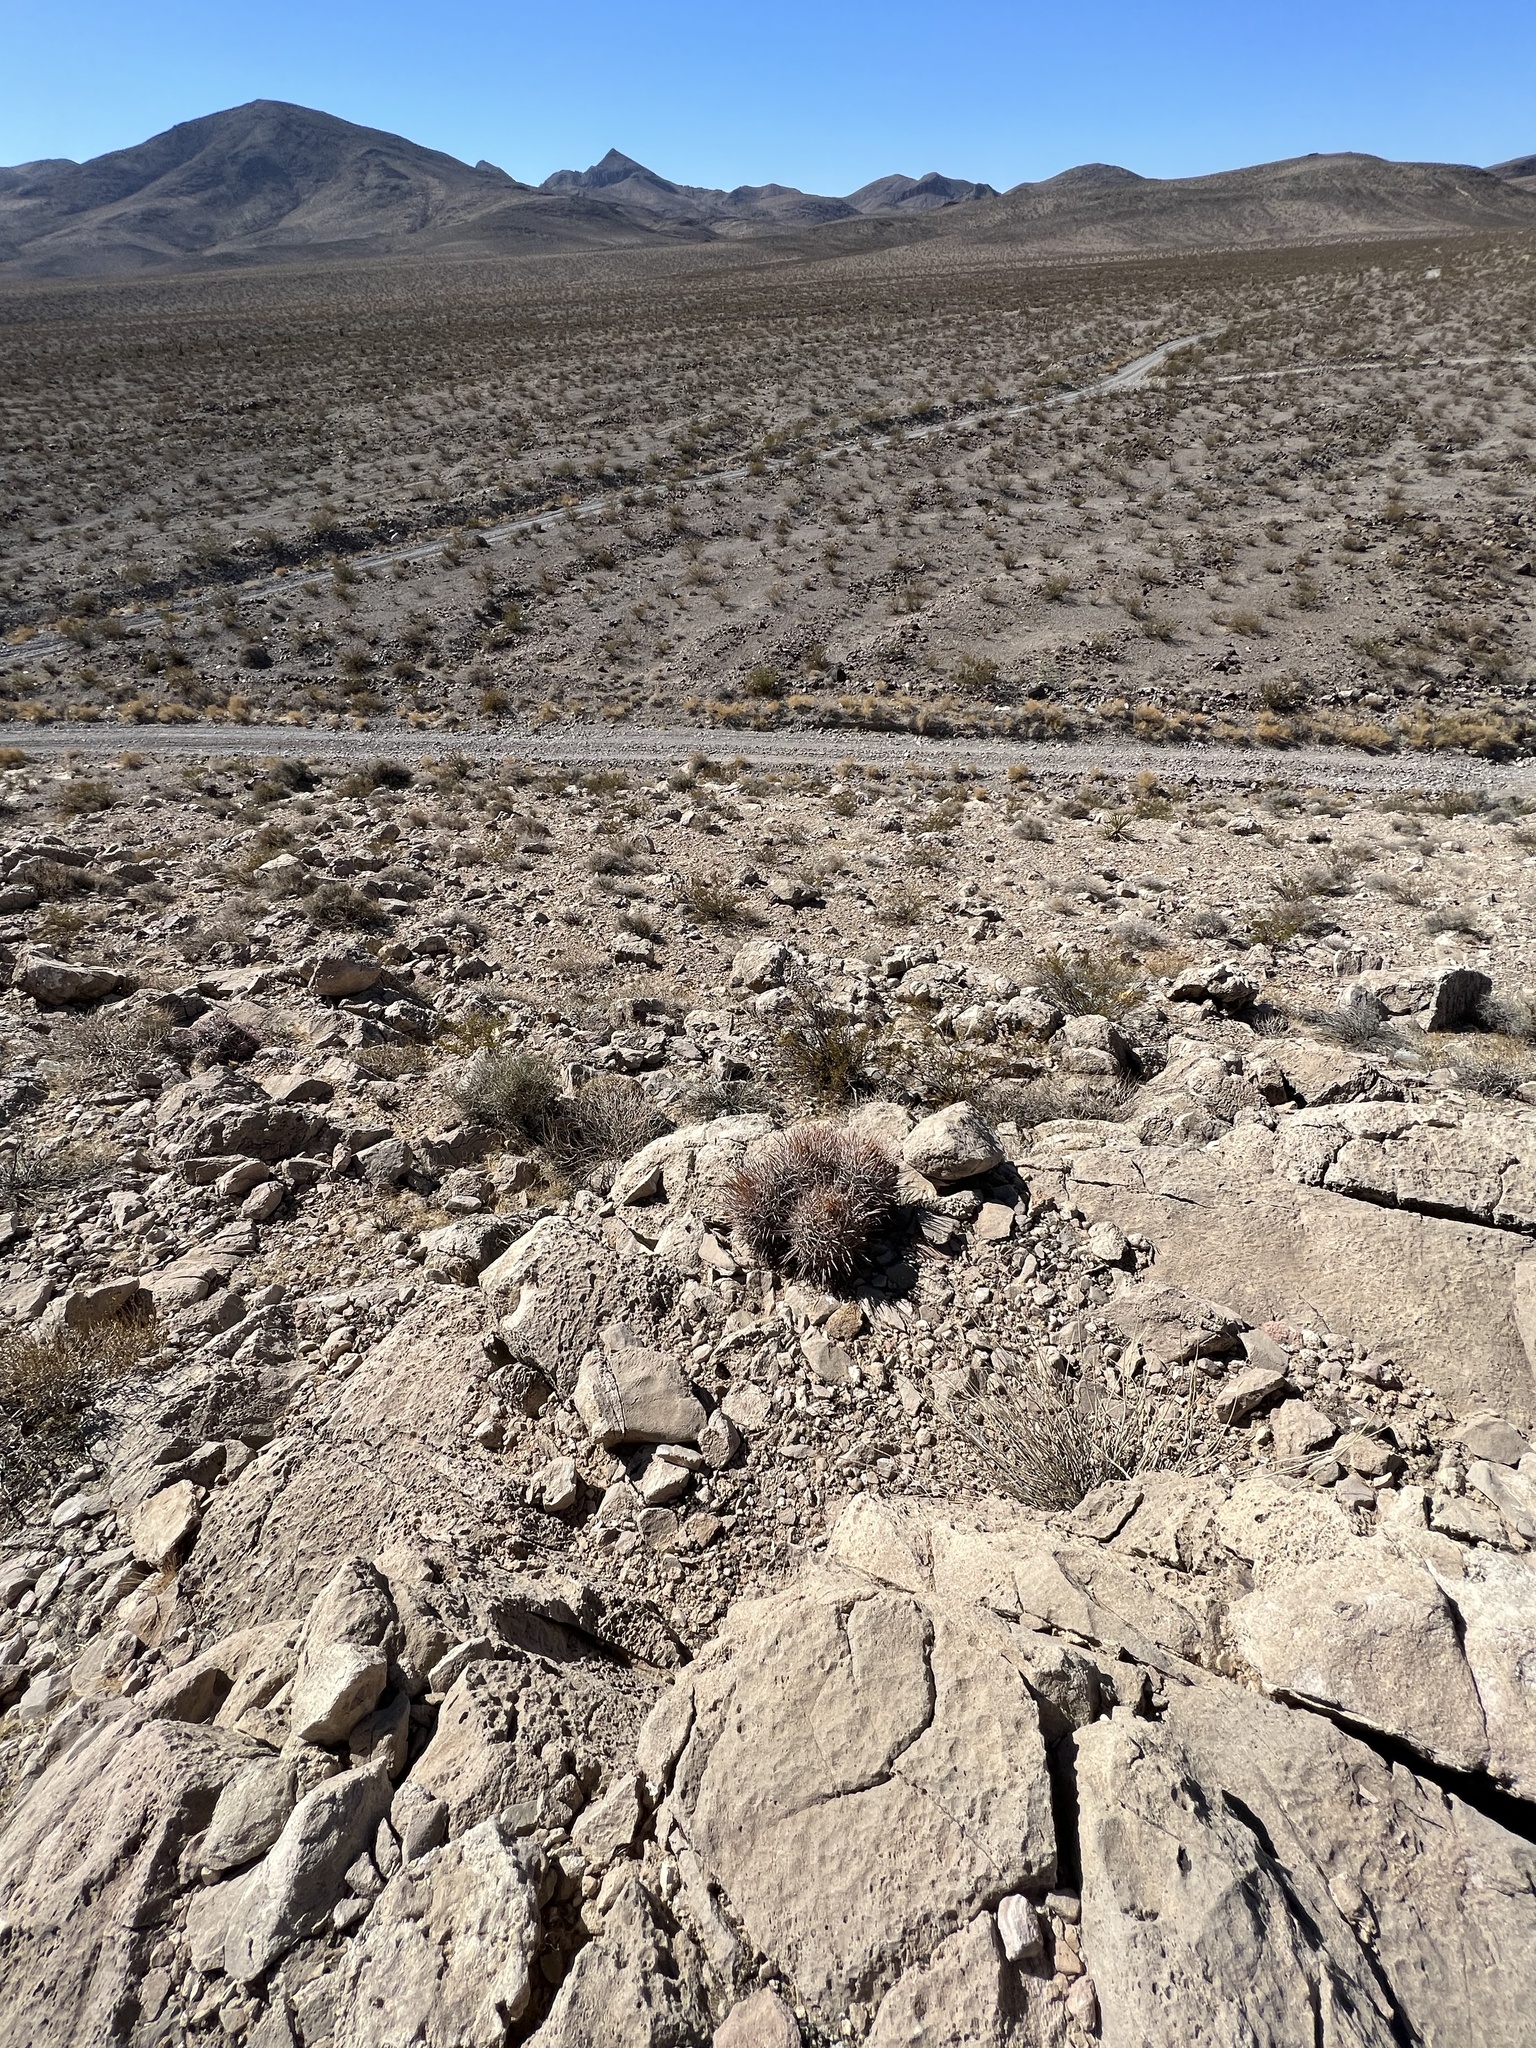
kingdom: Plantae
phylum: Tracheophyta
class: Magnoliopsida
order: Caryophyllales
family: Cactaceae
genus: Echinocactus
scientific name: Echinocactus polycephalus
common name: Cottontop cactus
